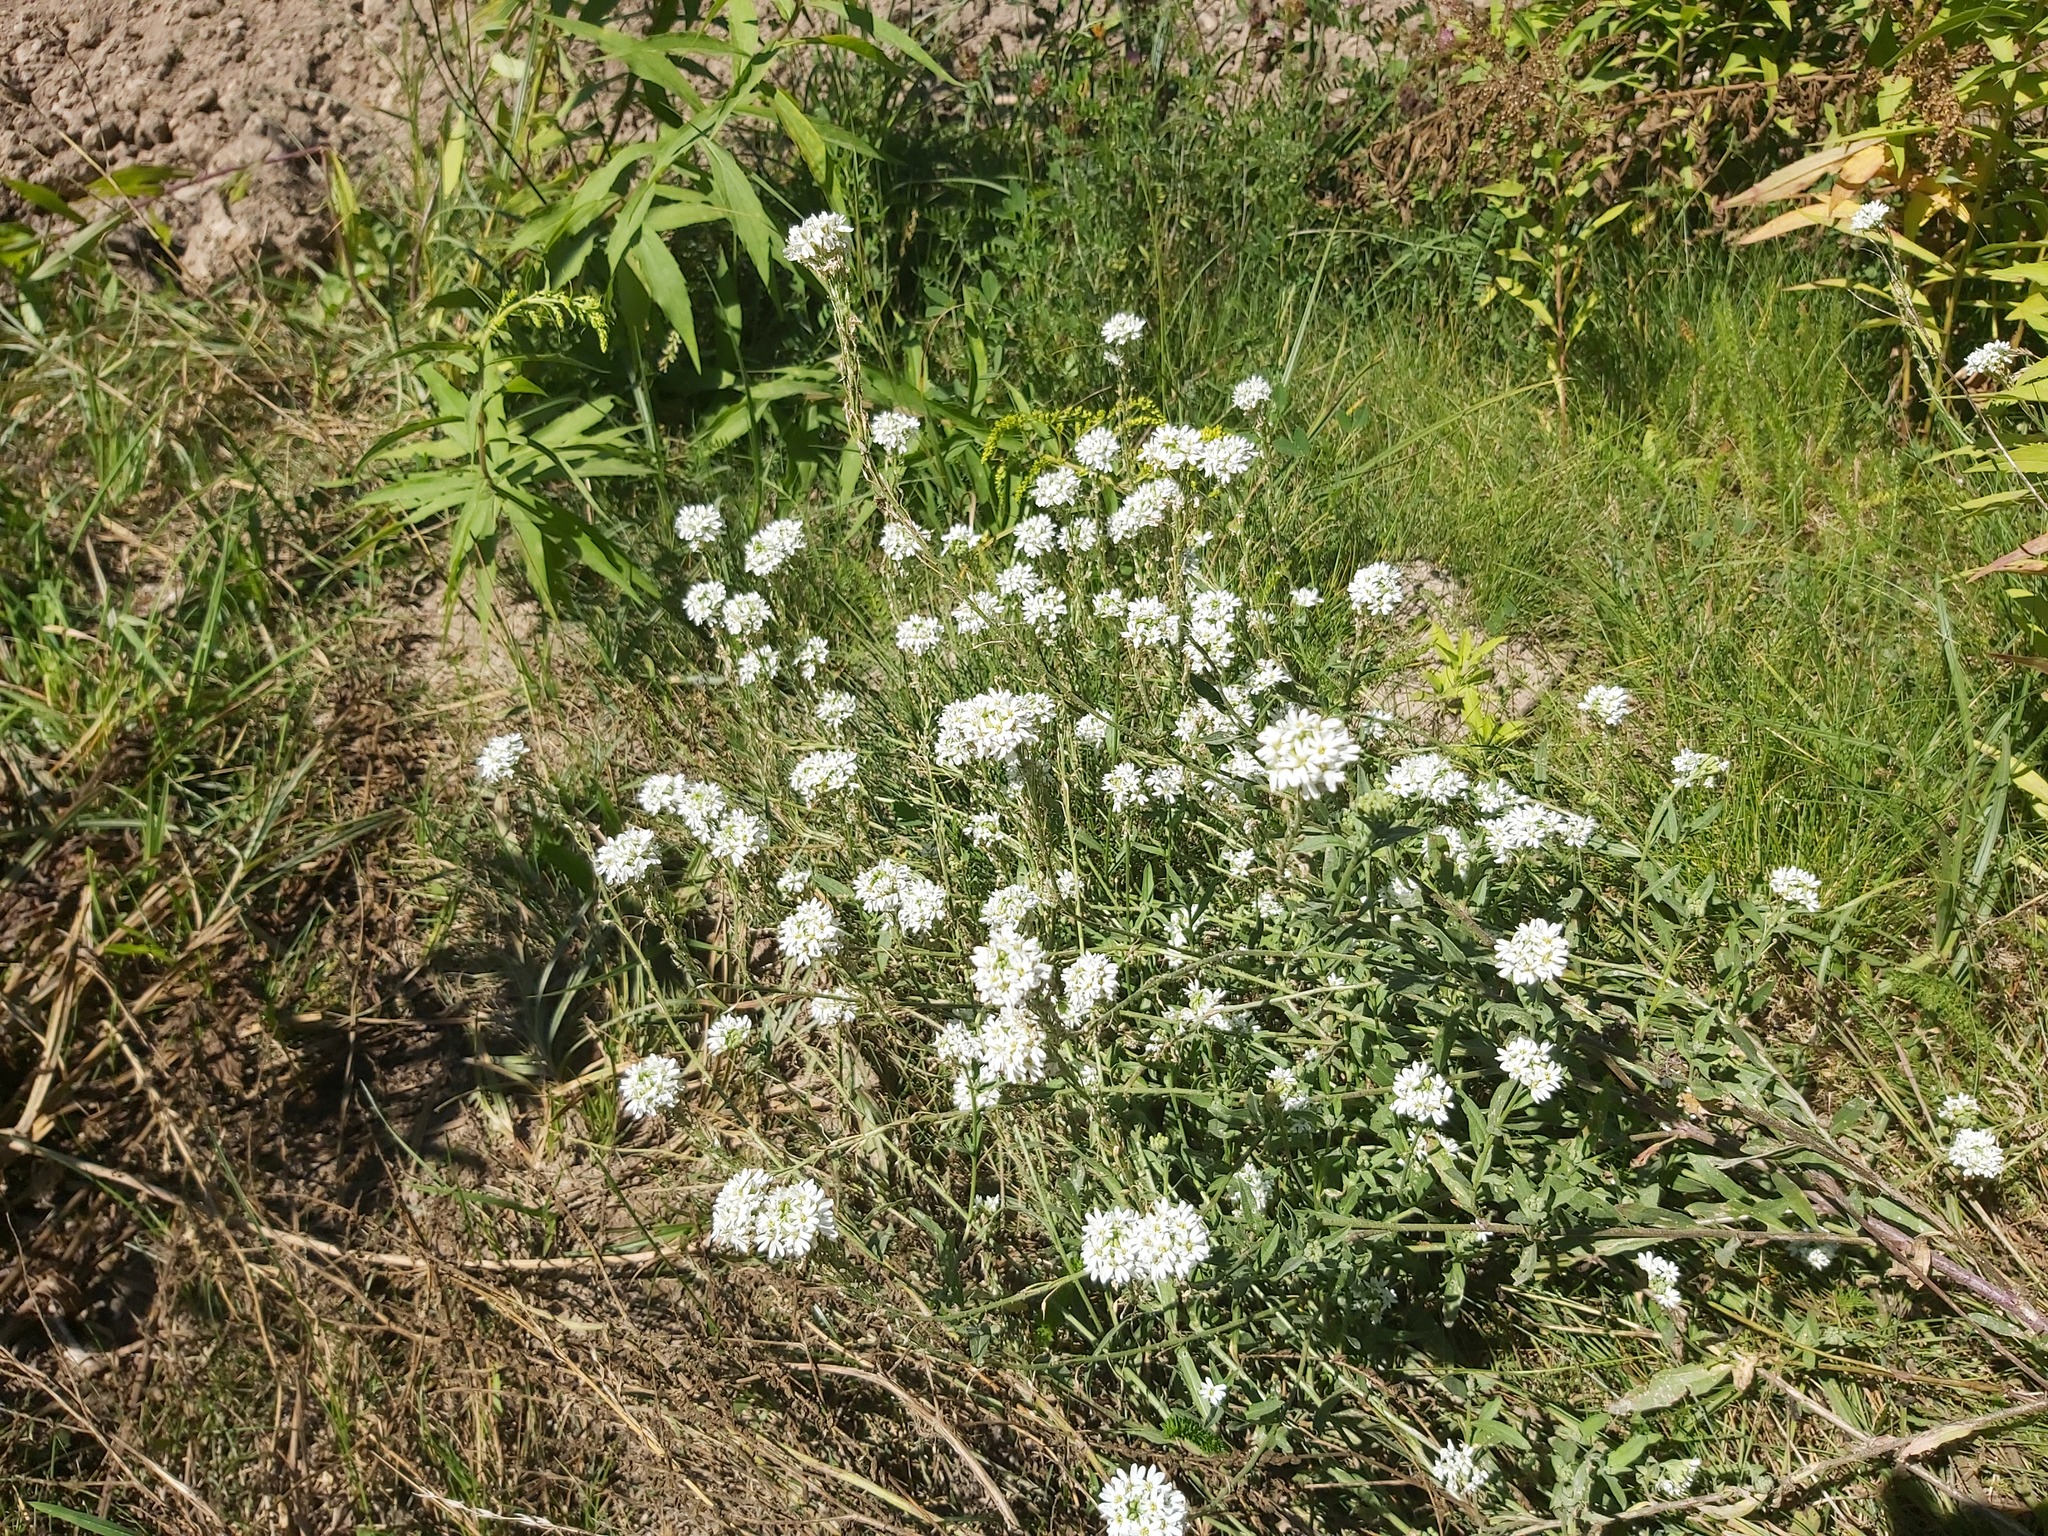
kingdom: Plantae
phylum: Tracheophyta
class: Magnoliopsida
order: Brassicales
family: Brassicaceae
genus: Berteroa
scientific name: Berteroa incana
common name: Hoary alison
